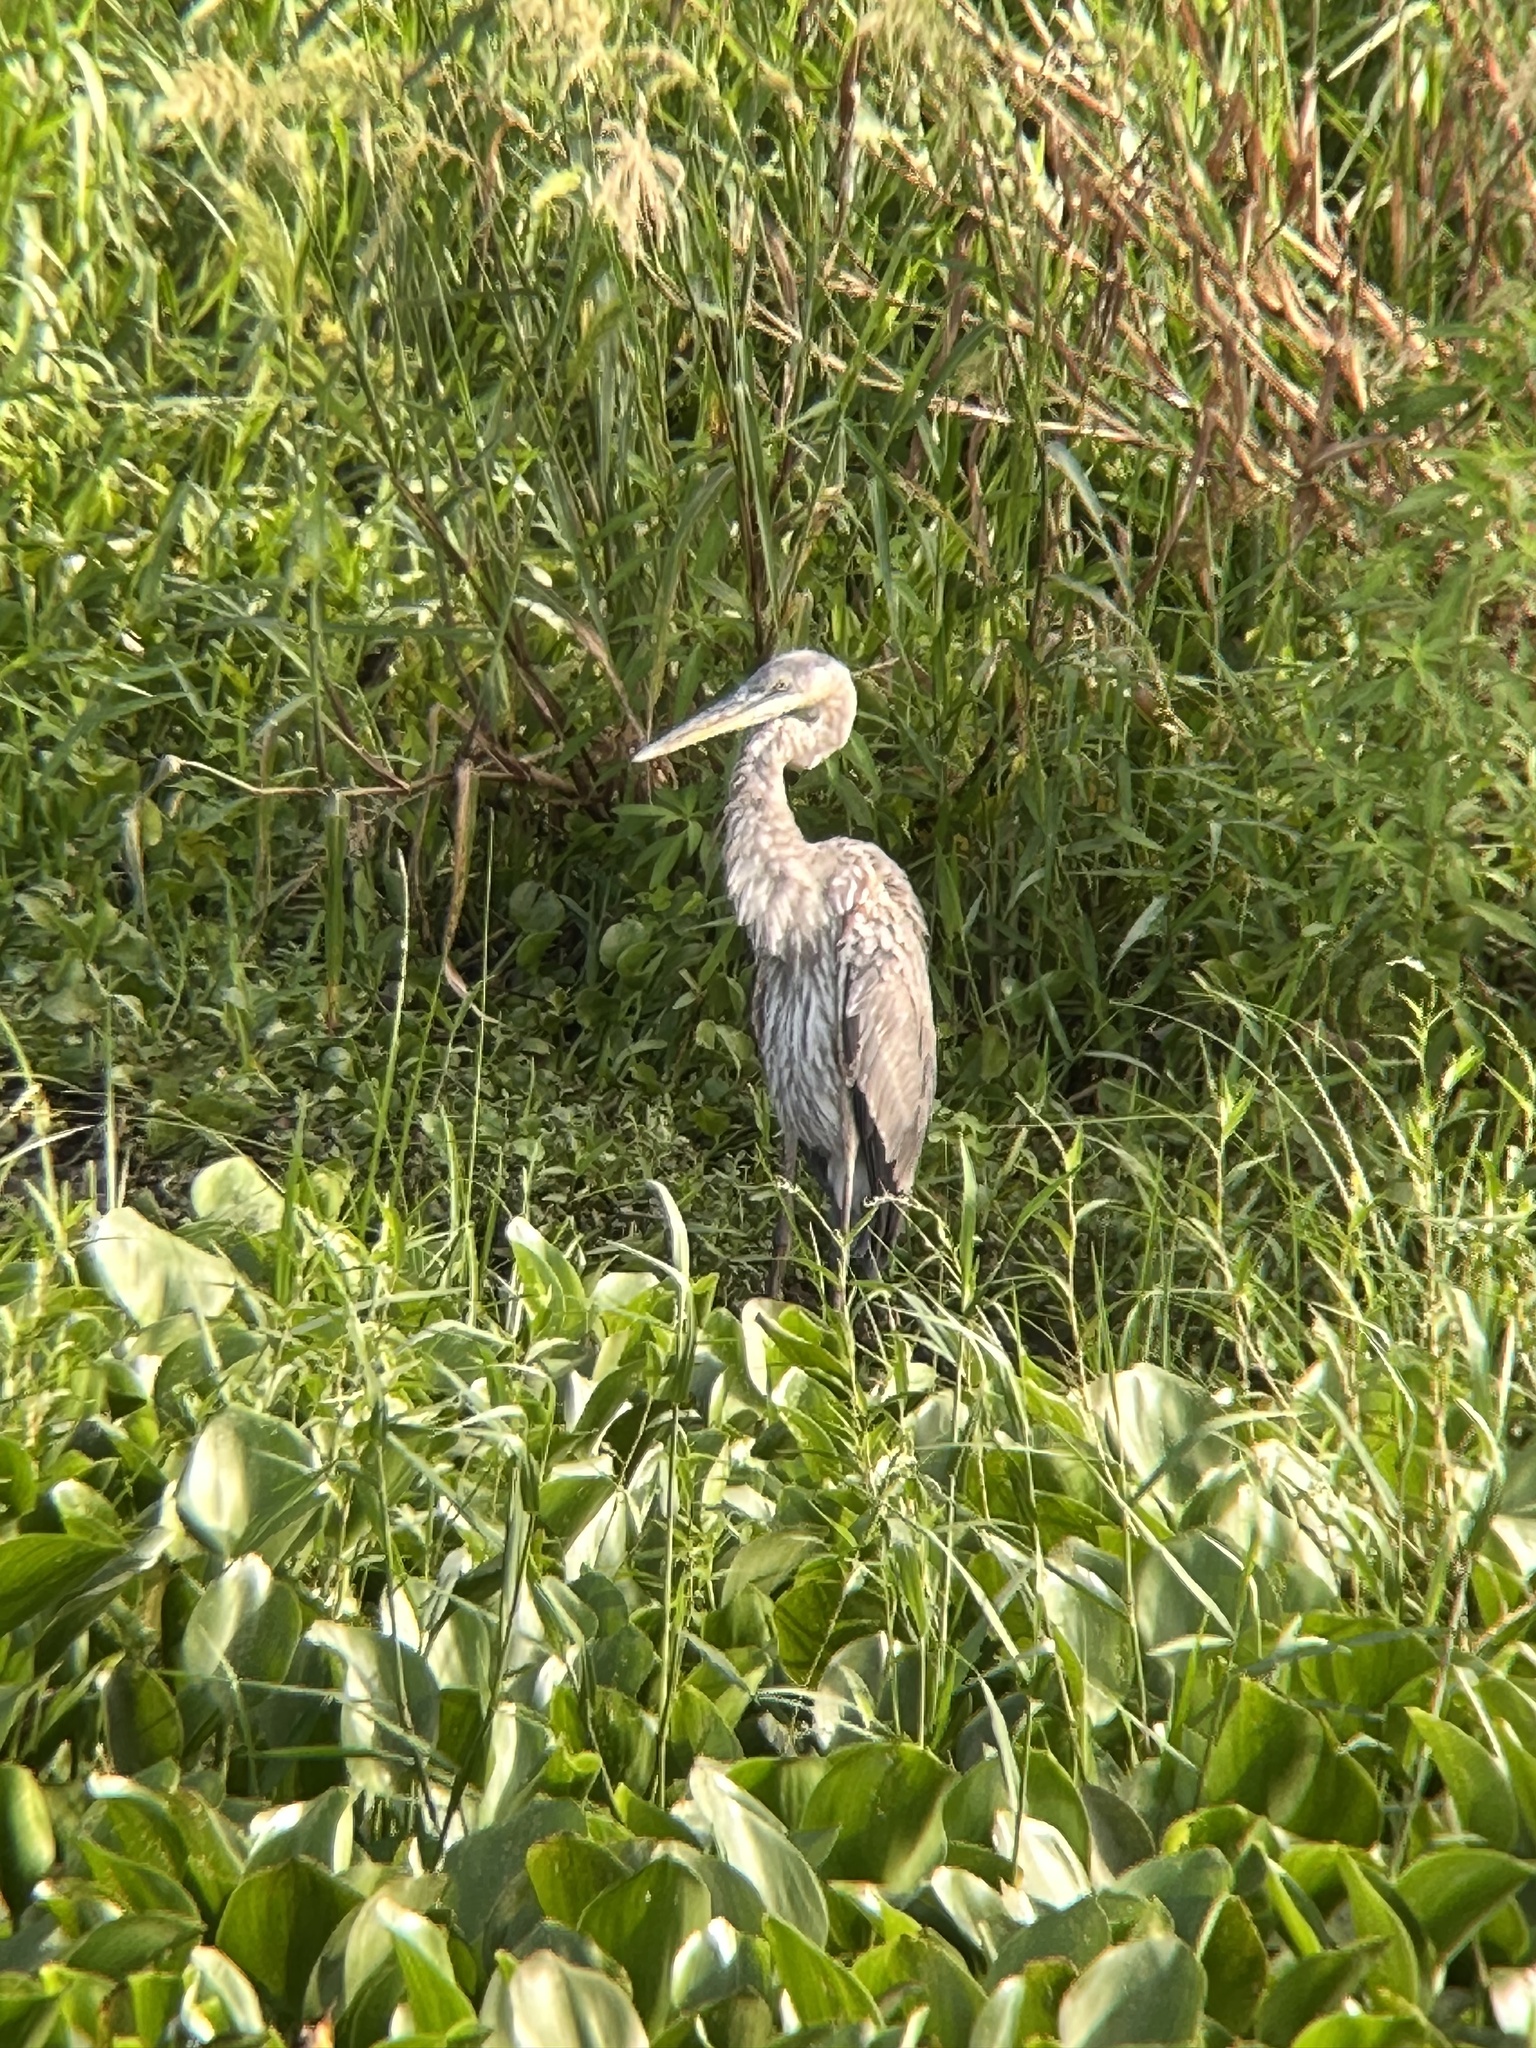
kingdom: Animalia
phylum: Chordata
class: Aves
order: Pelecaniformes
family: Ardeidae
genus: Ardea
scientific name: Ardea herodias
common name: Great blue heron
